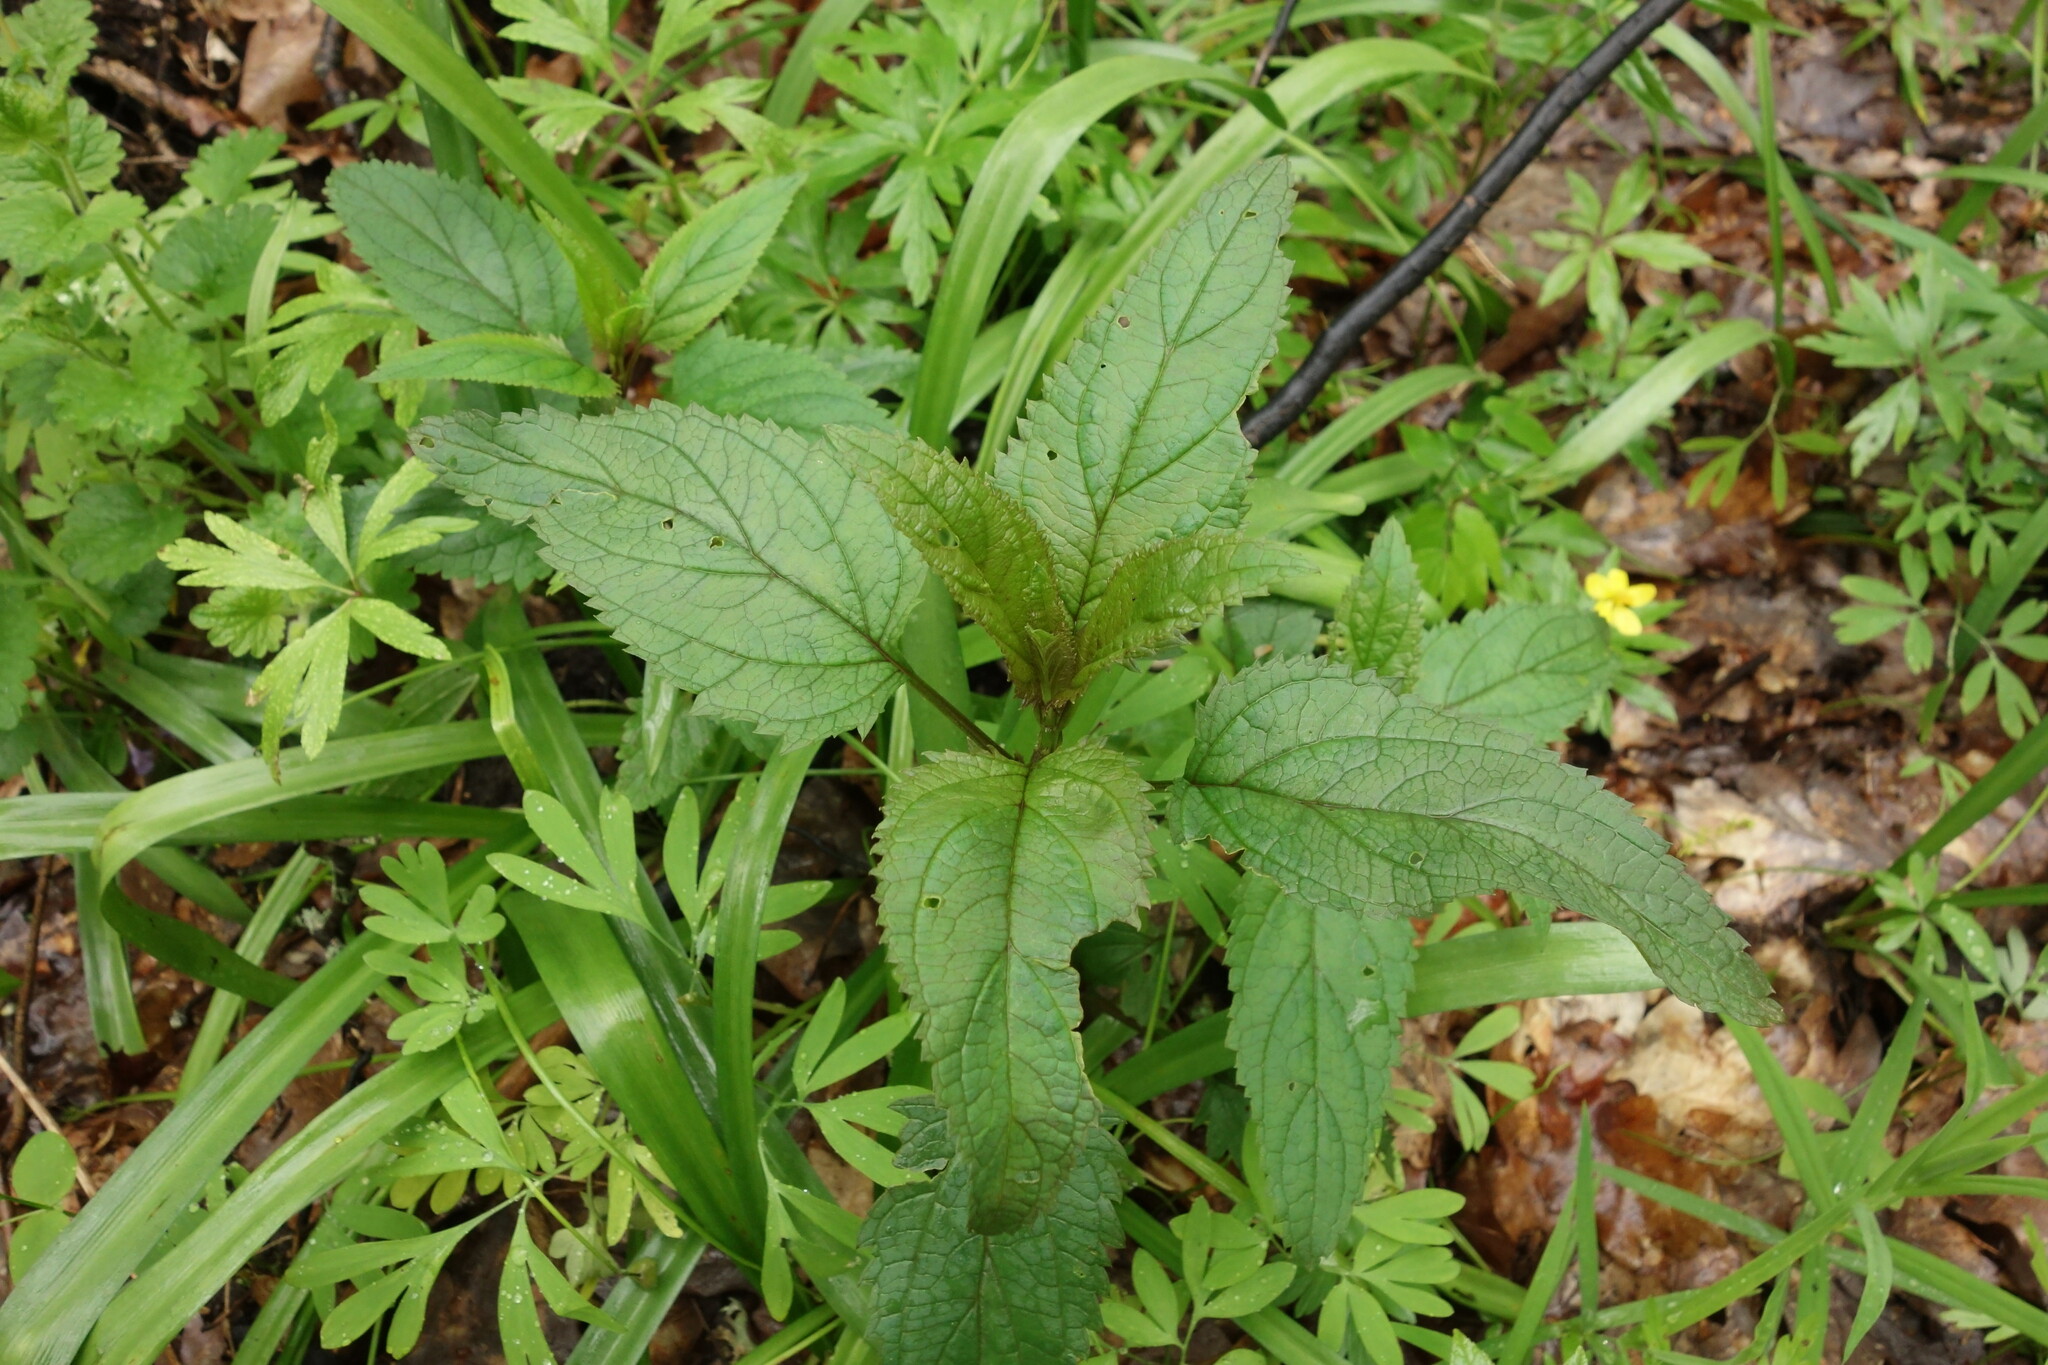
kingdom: Plantae
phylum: Tracheophyta
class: Magnoliopsida
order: Lamiales
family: Scrophulariaceae
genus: Scrophularia
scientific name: Scrophularia nodosa
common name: Common figwort
